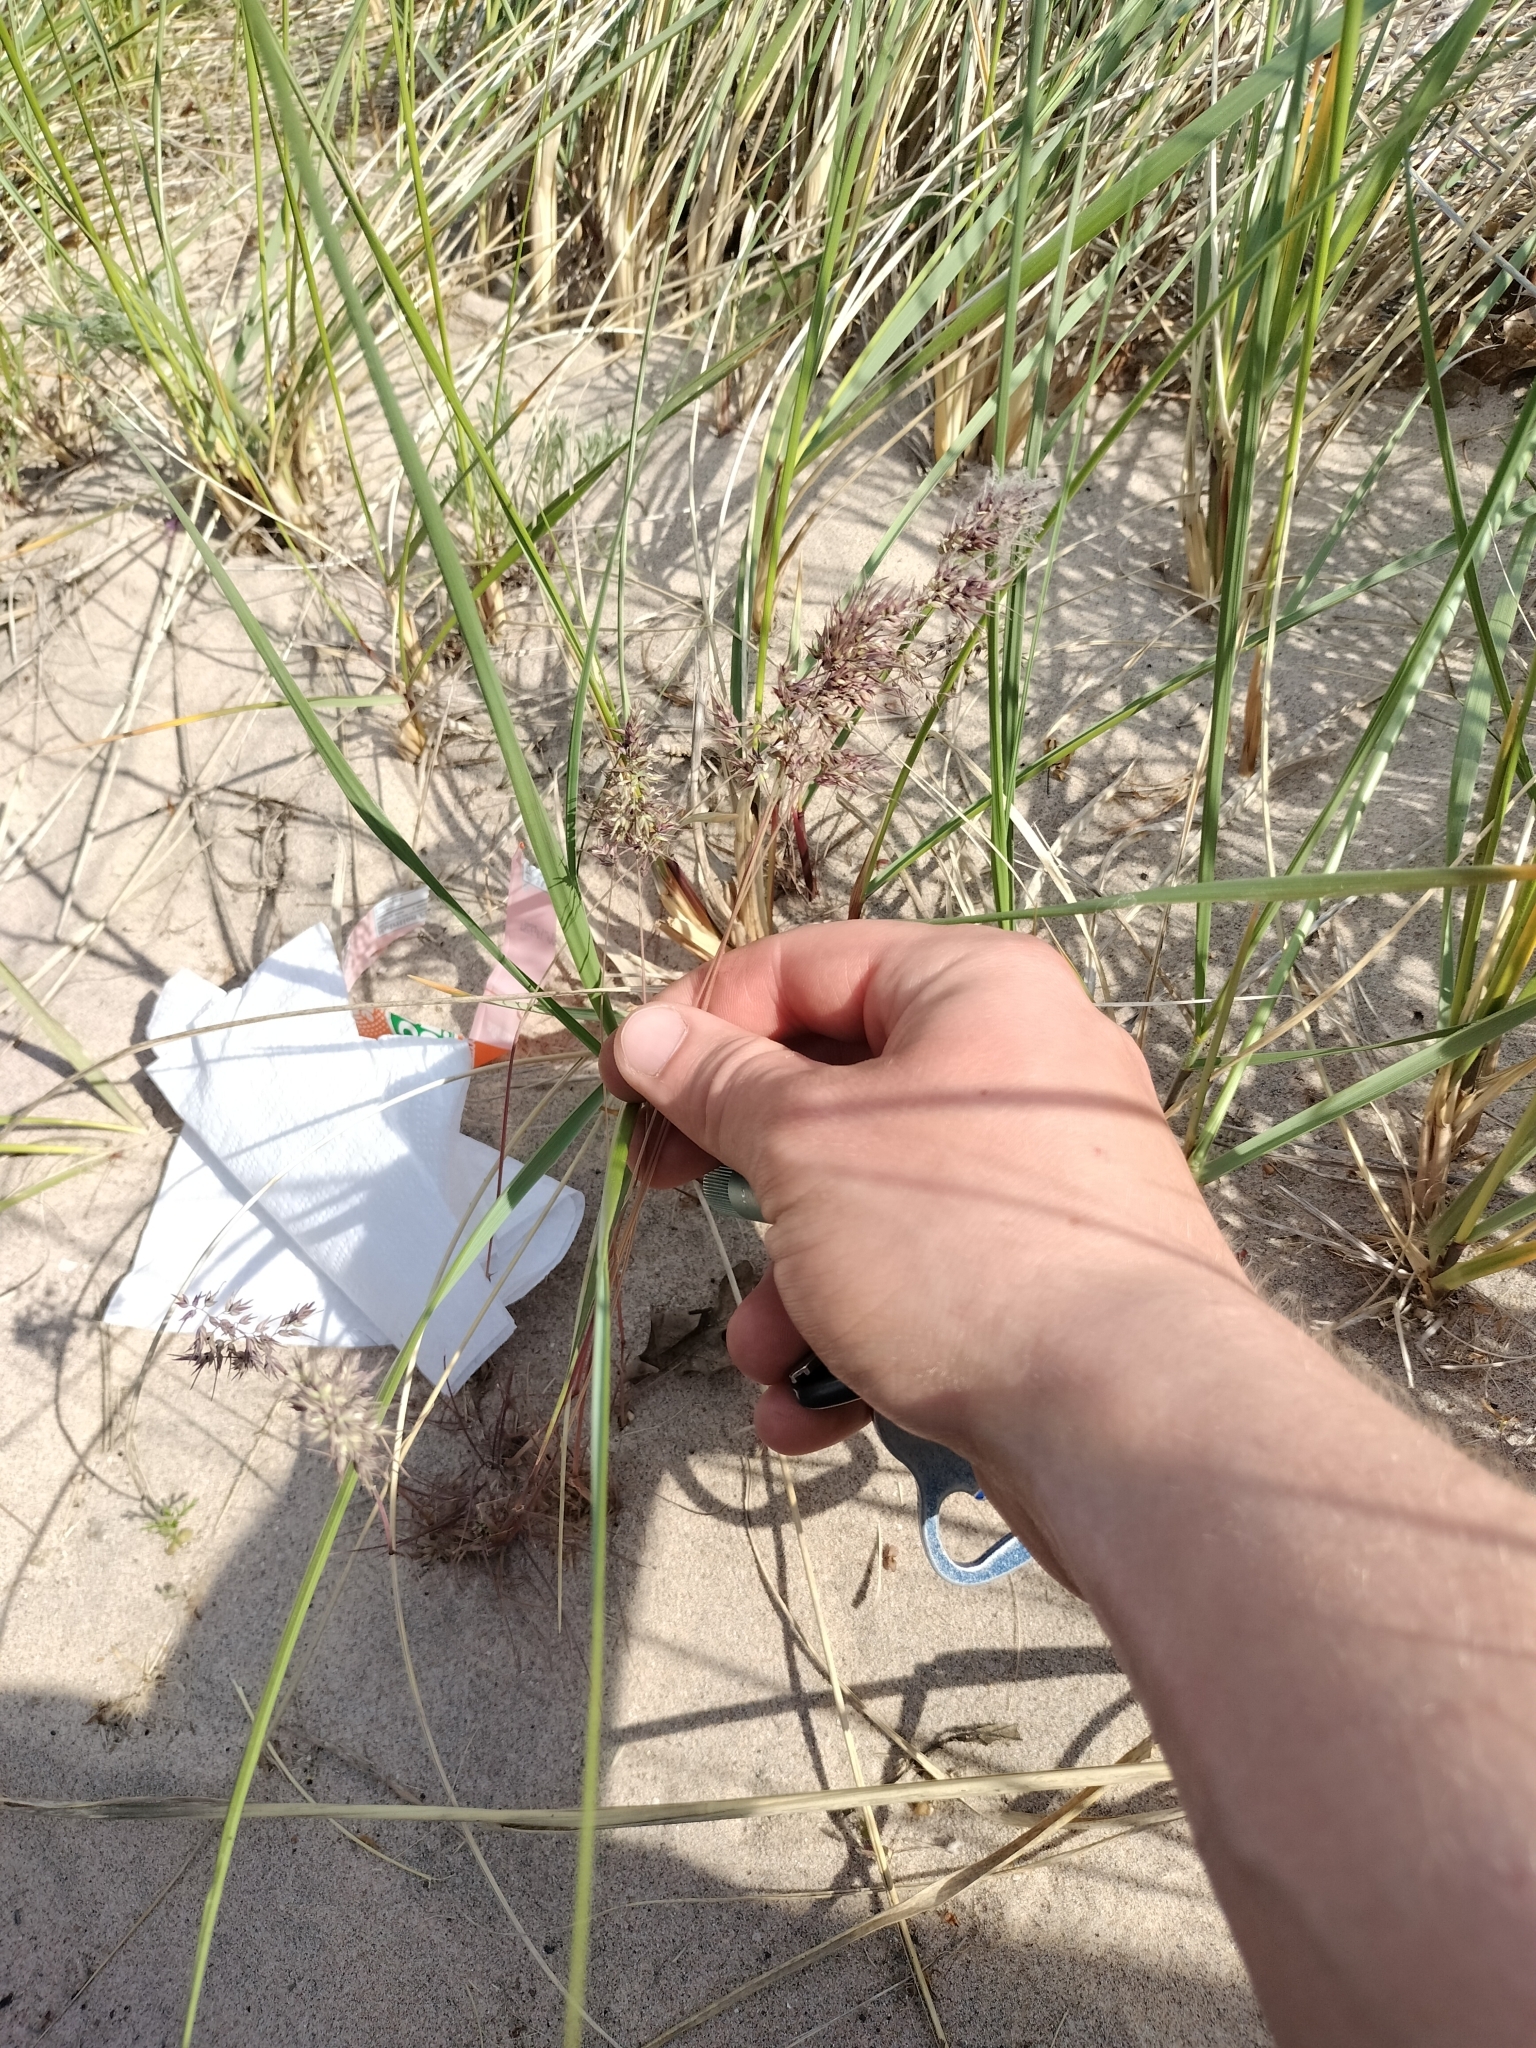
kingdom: Plantae
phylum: Tracheophyta
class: Liliopsida
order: Poales
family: Poaceae
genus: Poa
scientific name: Poa bulbosa
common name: Bulbous bluegrass
